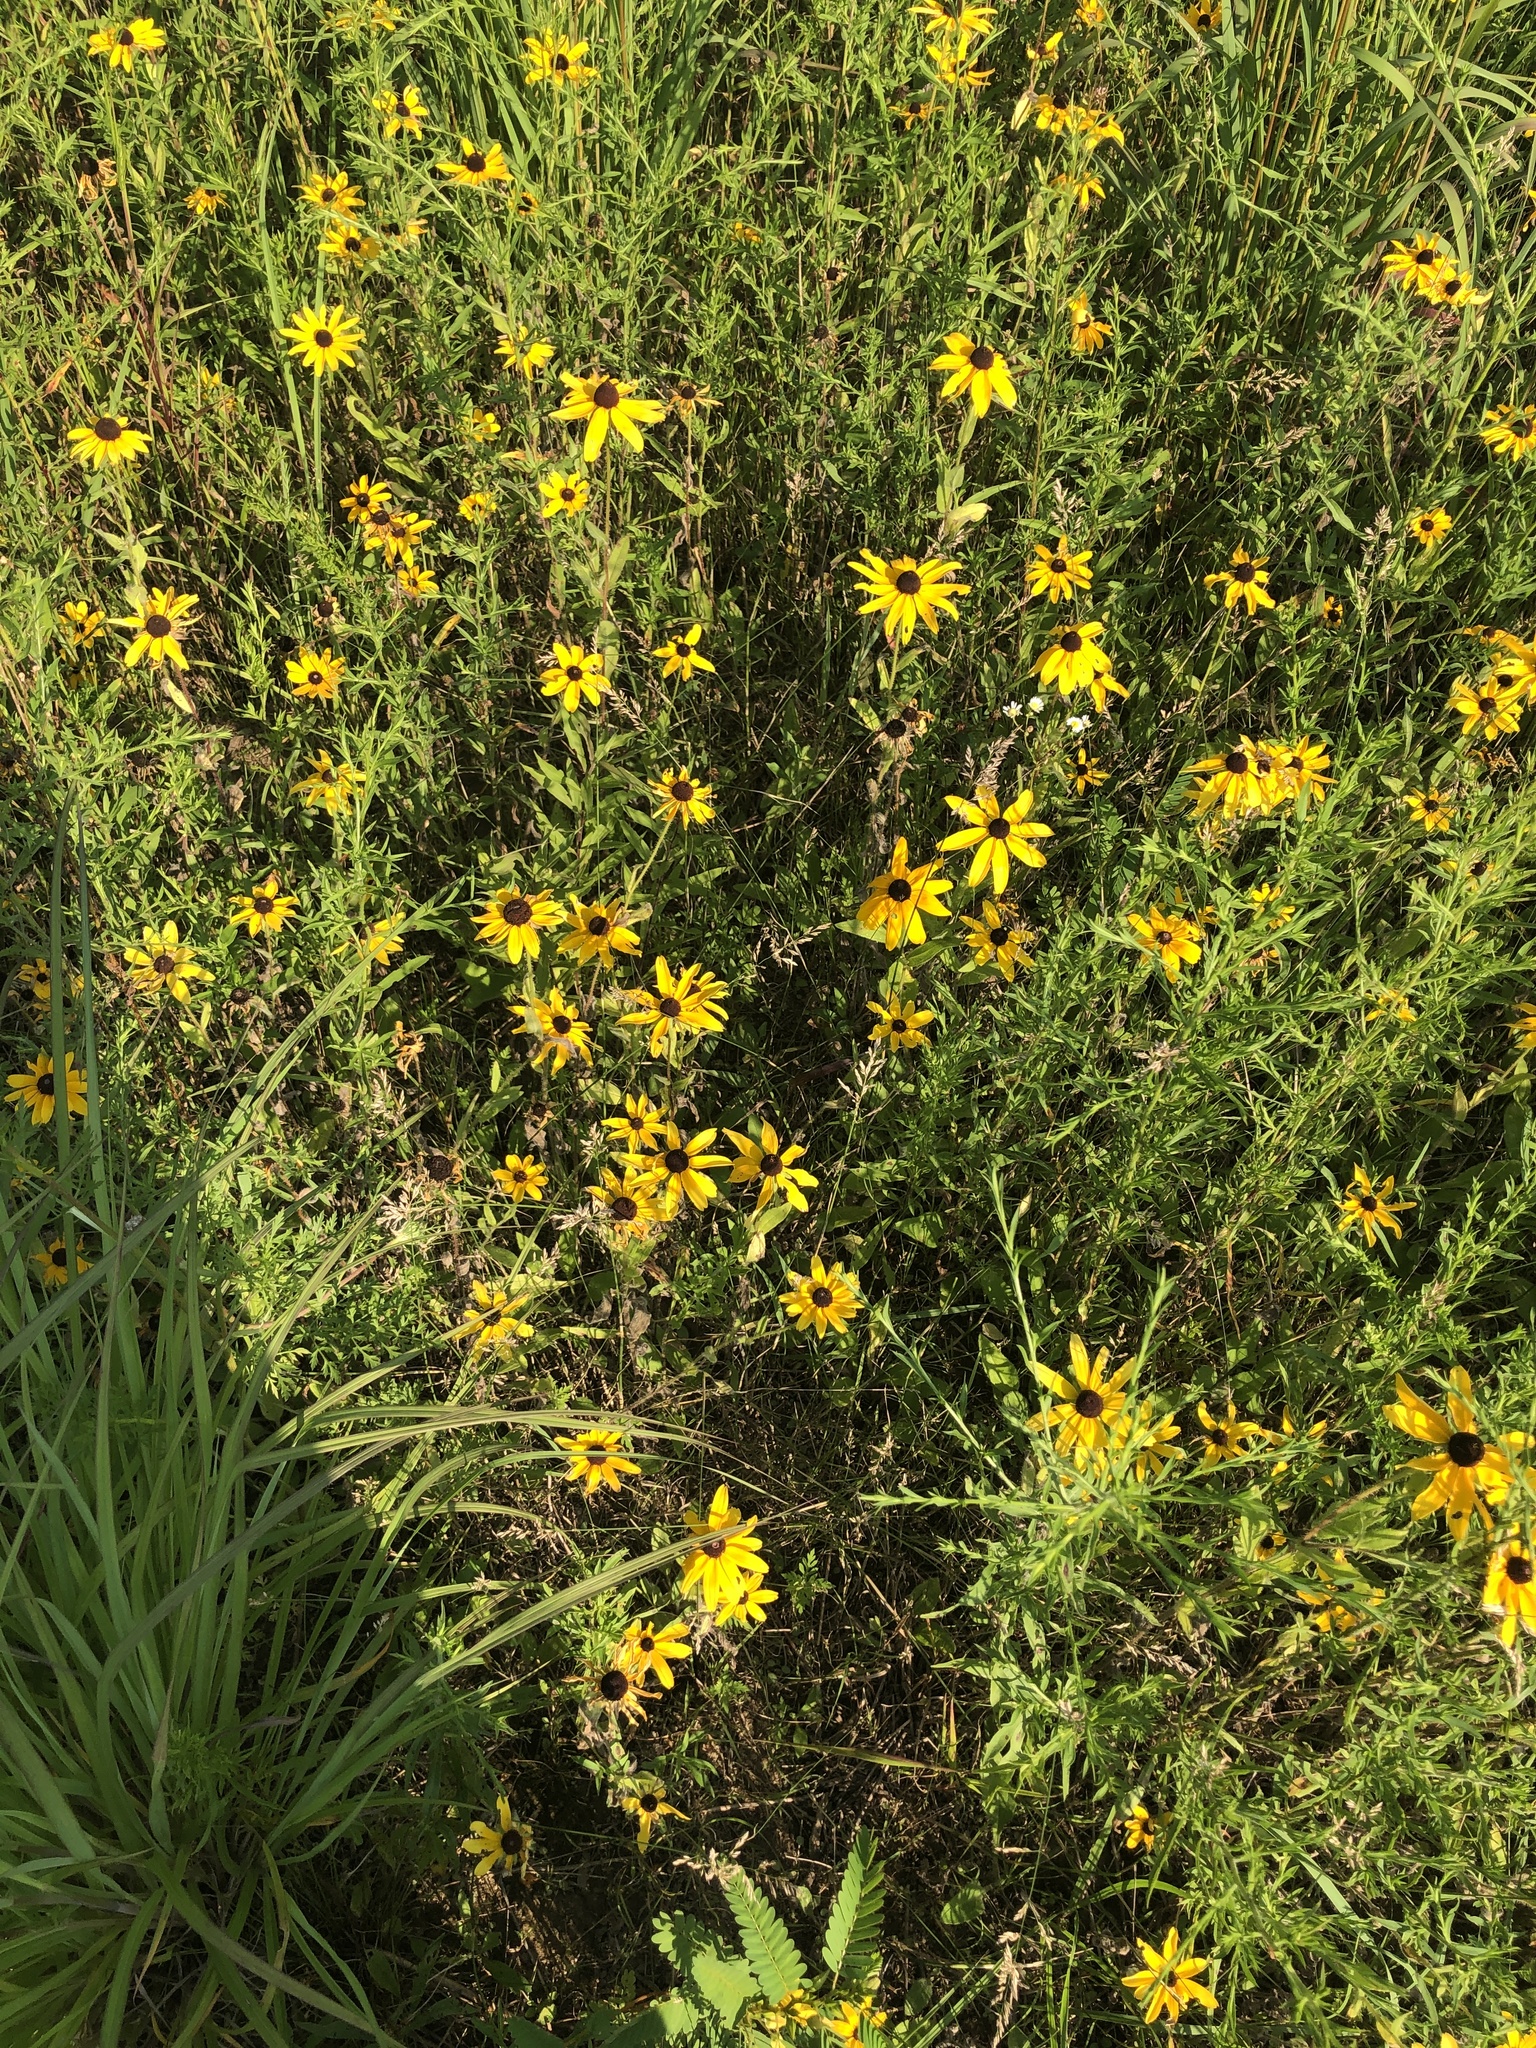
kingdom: Plantae
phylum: Tracheophyta
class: Magnoliopsida
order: Asterales
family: Asteraceae
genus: Rudbeckia
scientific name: Rudbeckia hirta
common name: Black-eyed-susan
